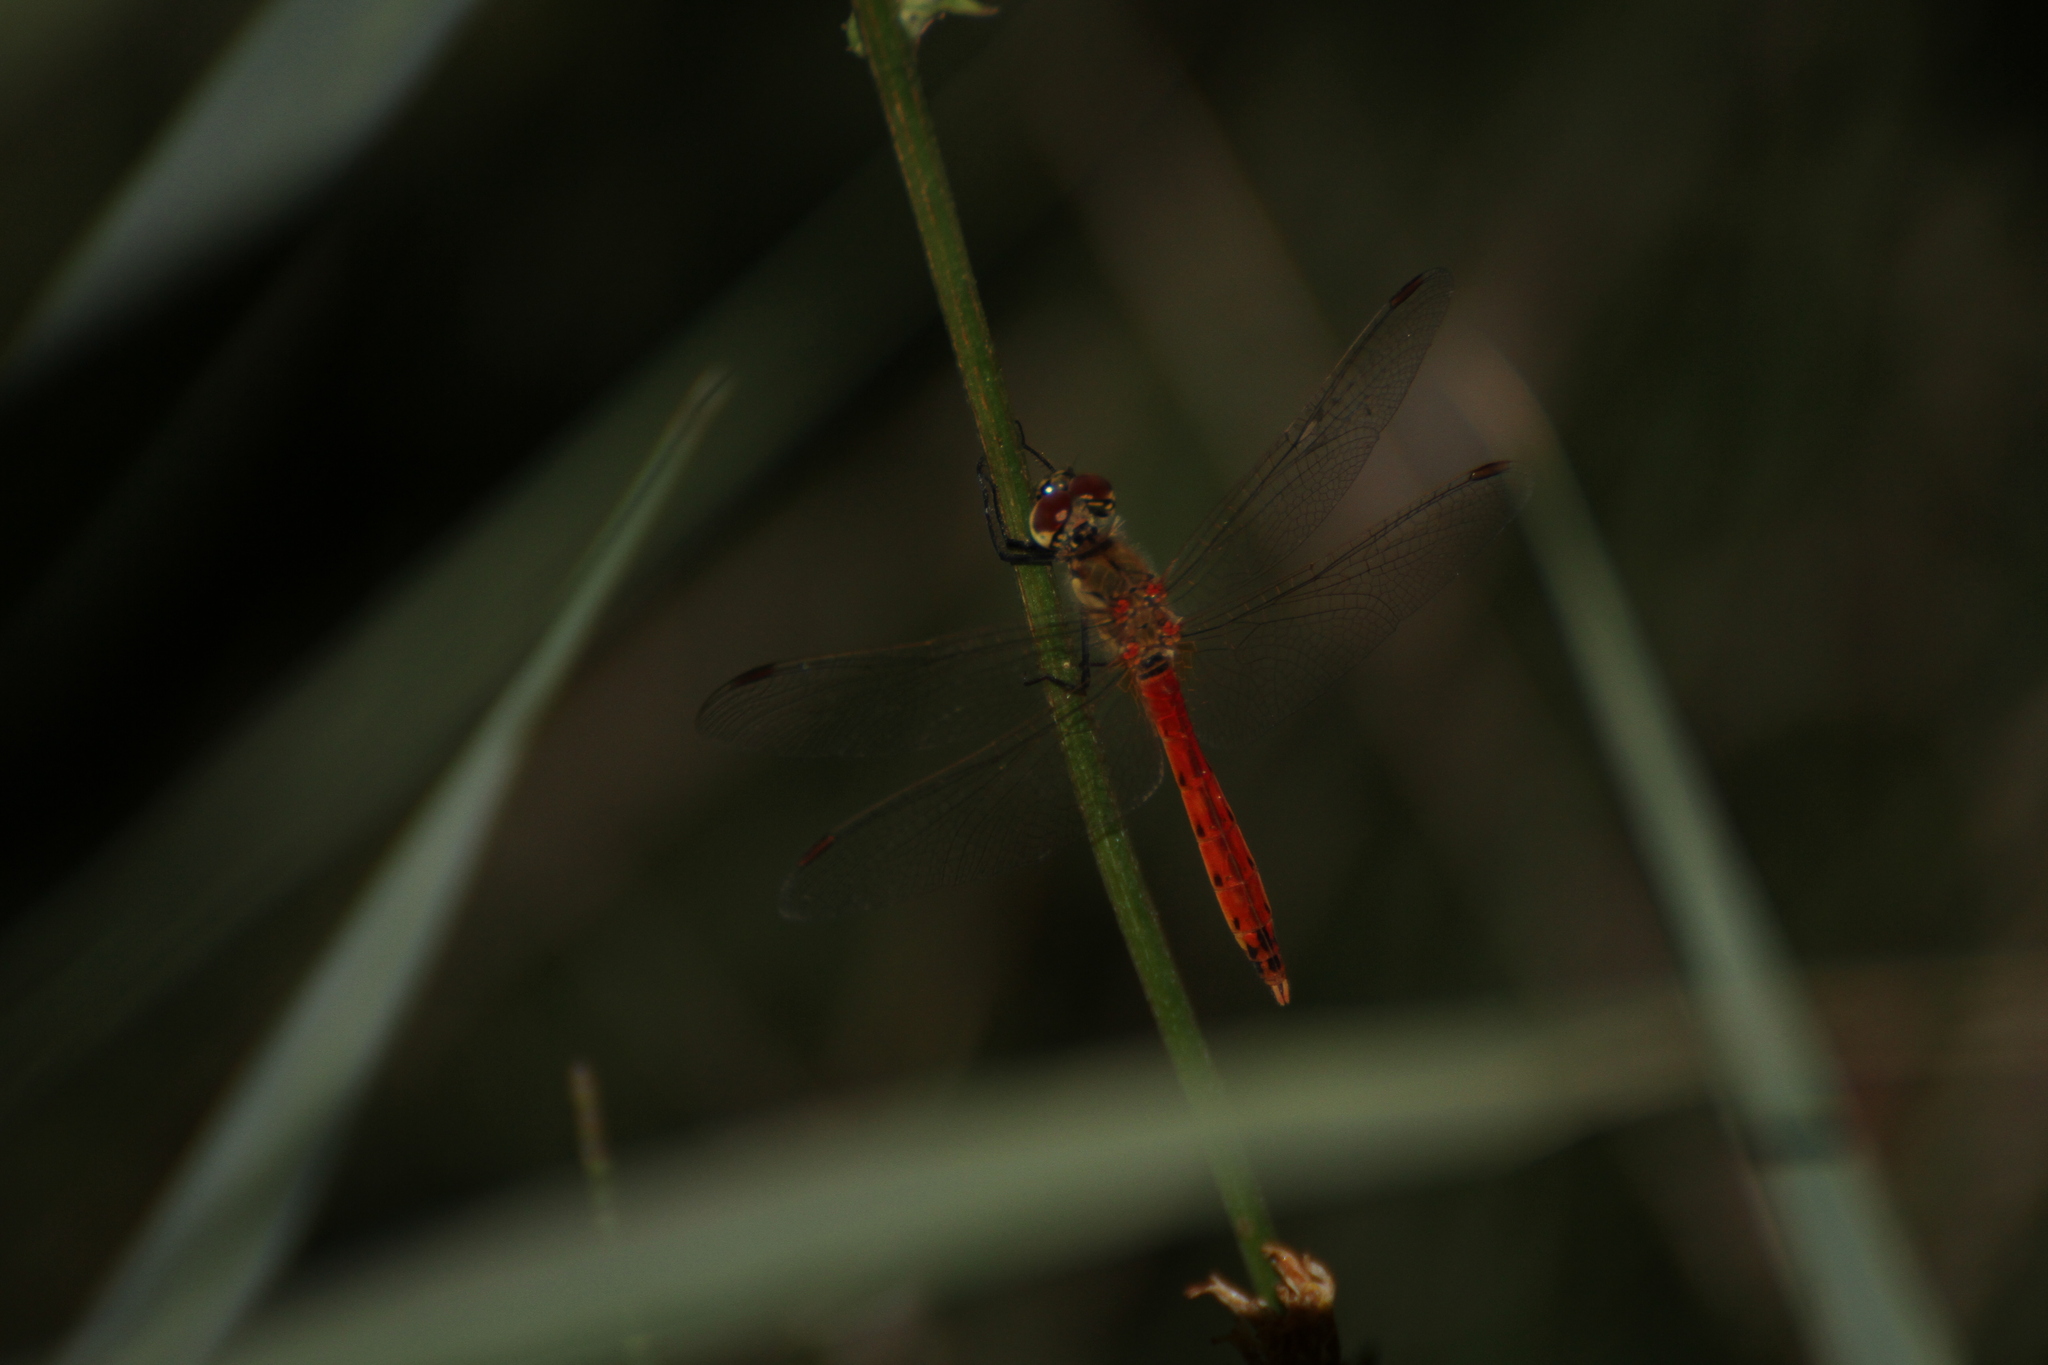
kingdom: Animalia
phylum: Arthropoda
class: Insecta
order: Odonata
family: Libellulidae
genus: Sympetrum
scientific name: Sympetrum depressiusculum
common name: Spotted darter
